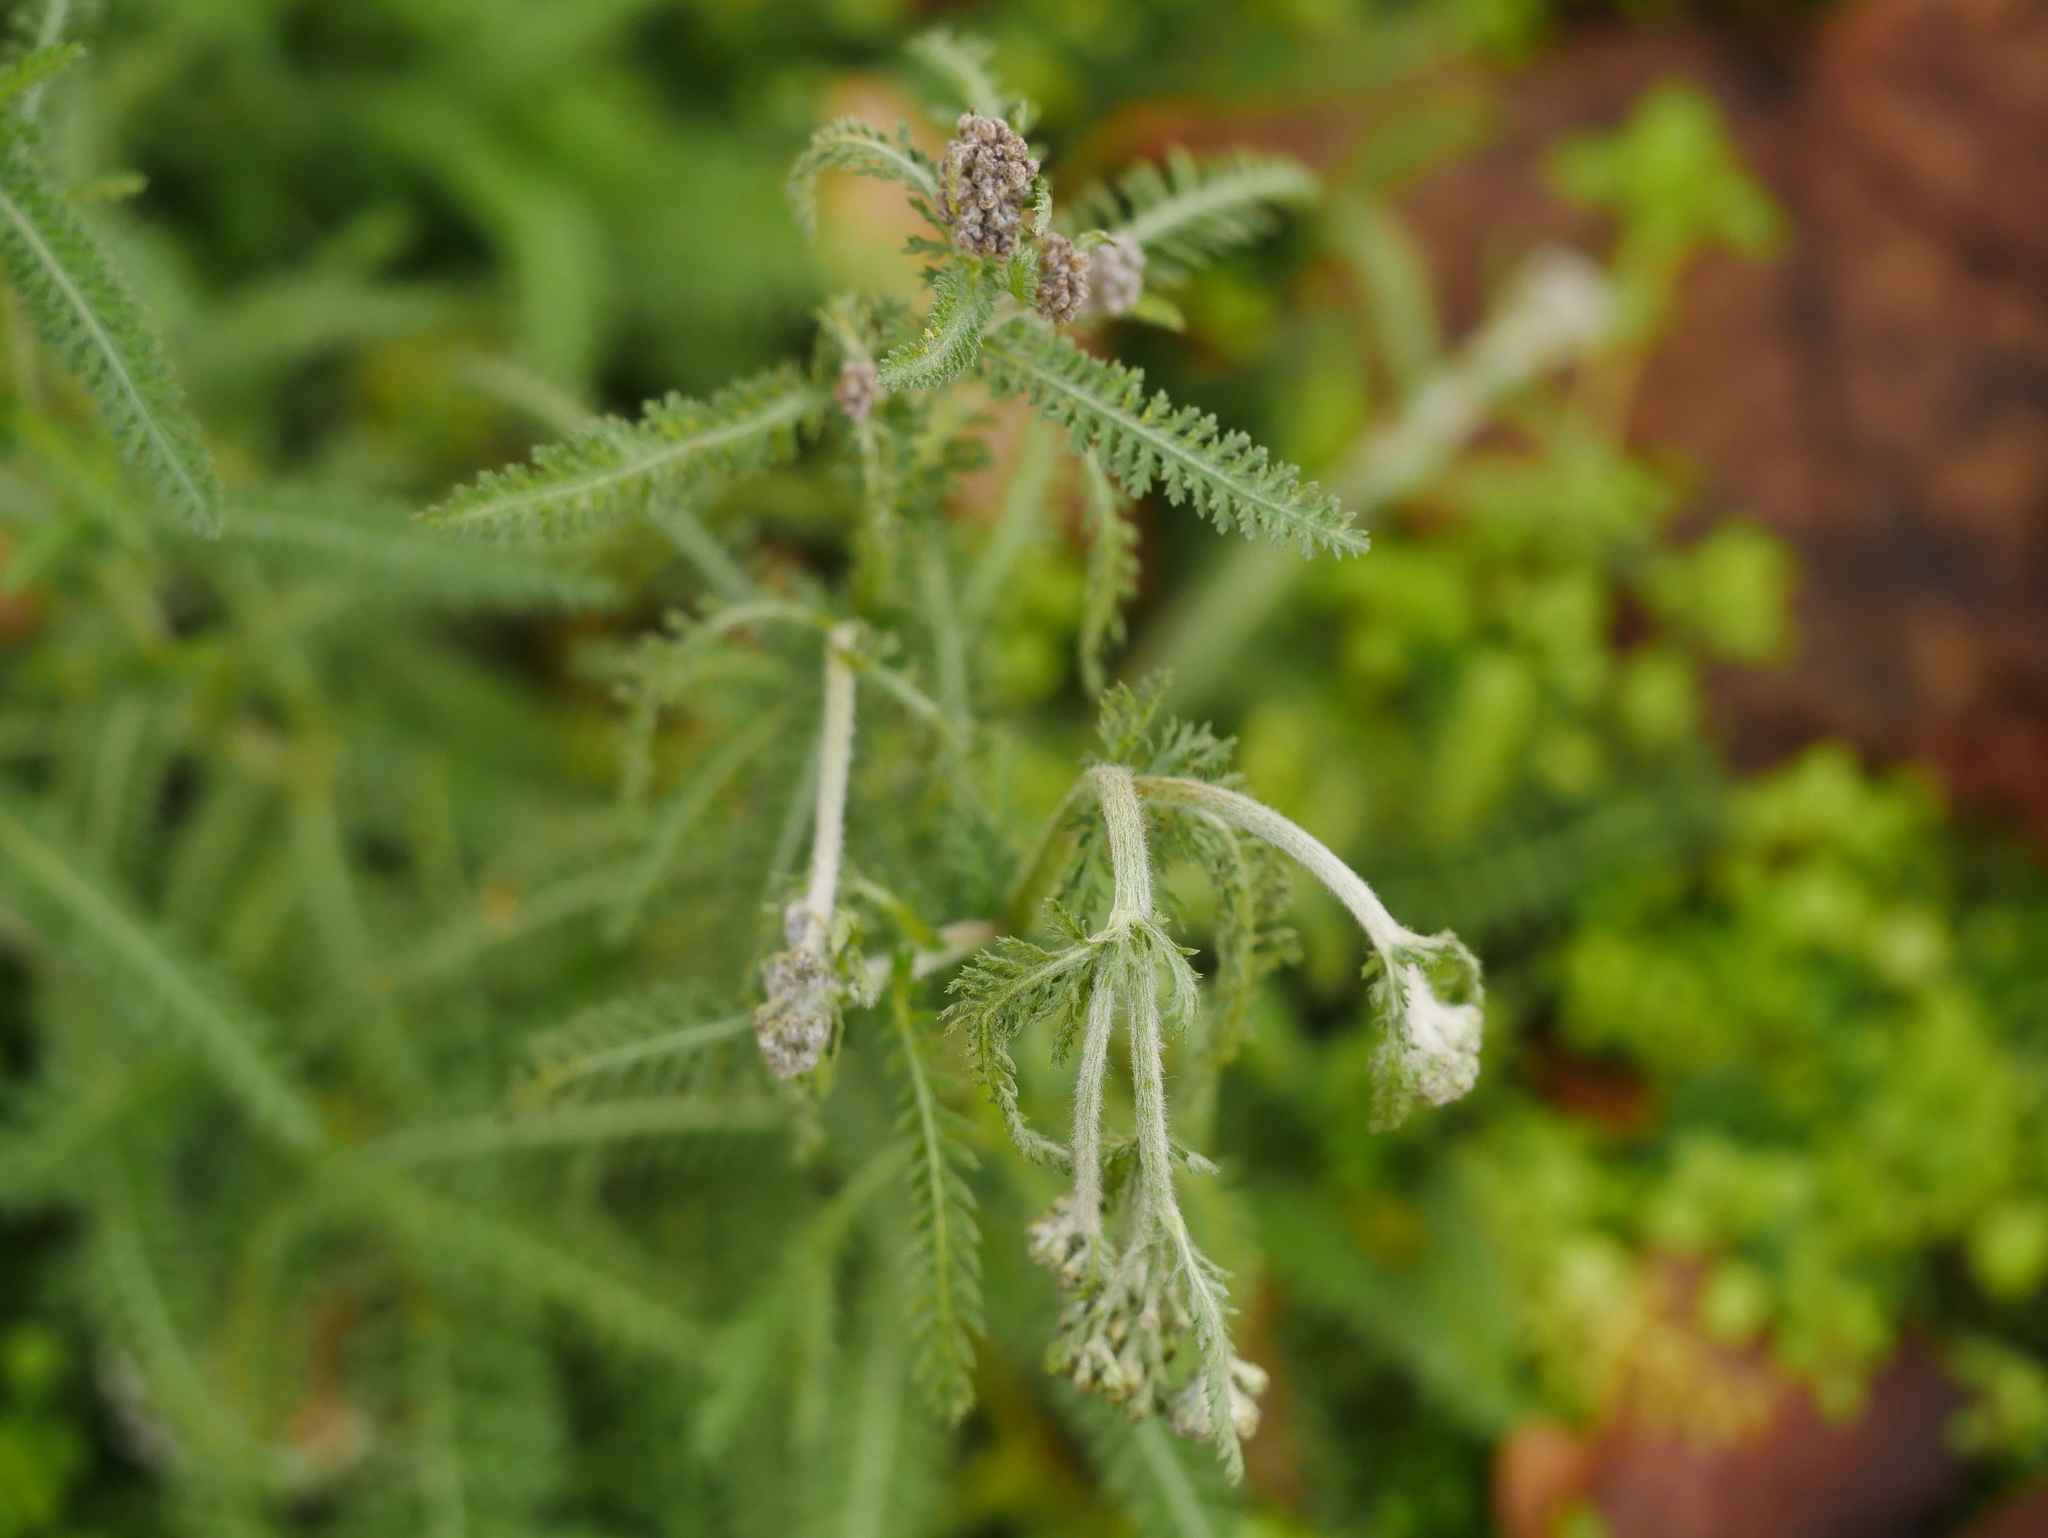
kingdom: Plantae
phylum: Tracheophyta
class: Magnoliopsida
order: Asterales
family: Asteraceae
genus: Achillea
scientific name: Achillea millefolium
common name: Yarrow
